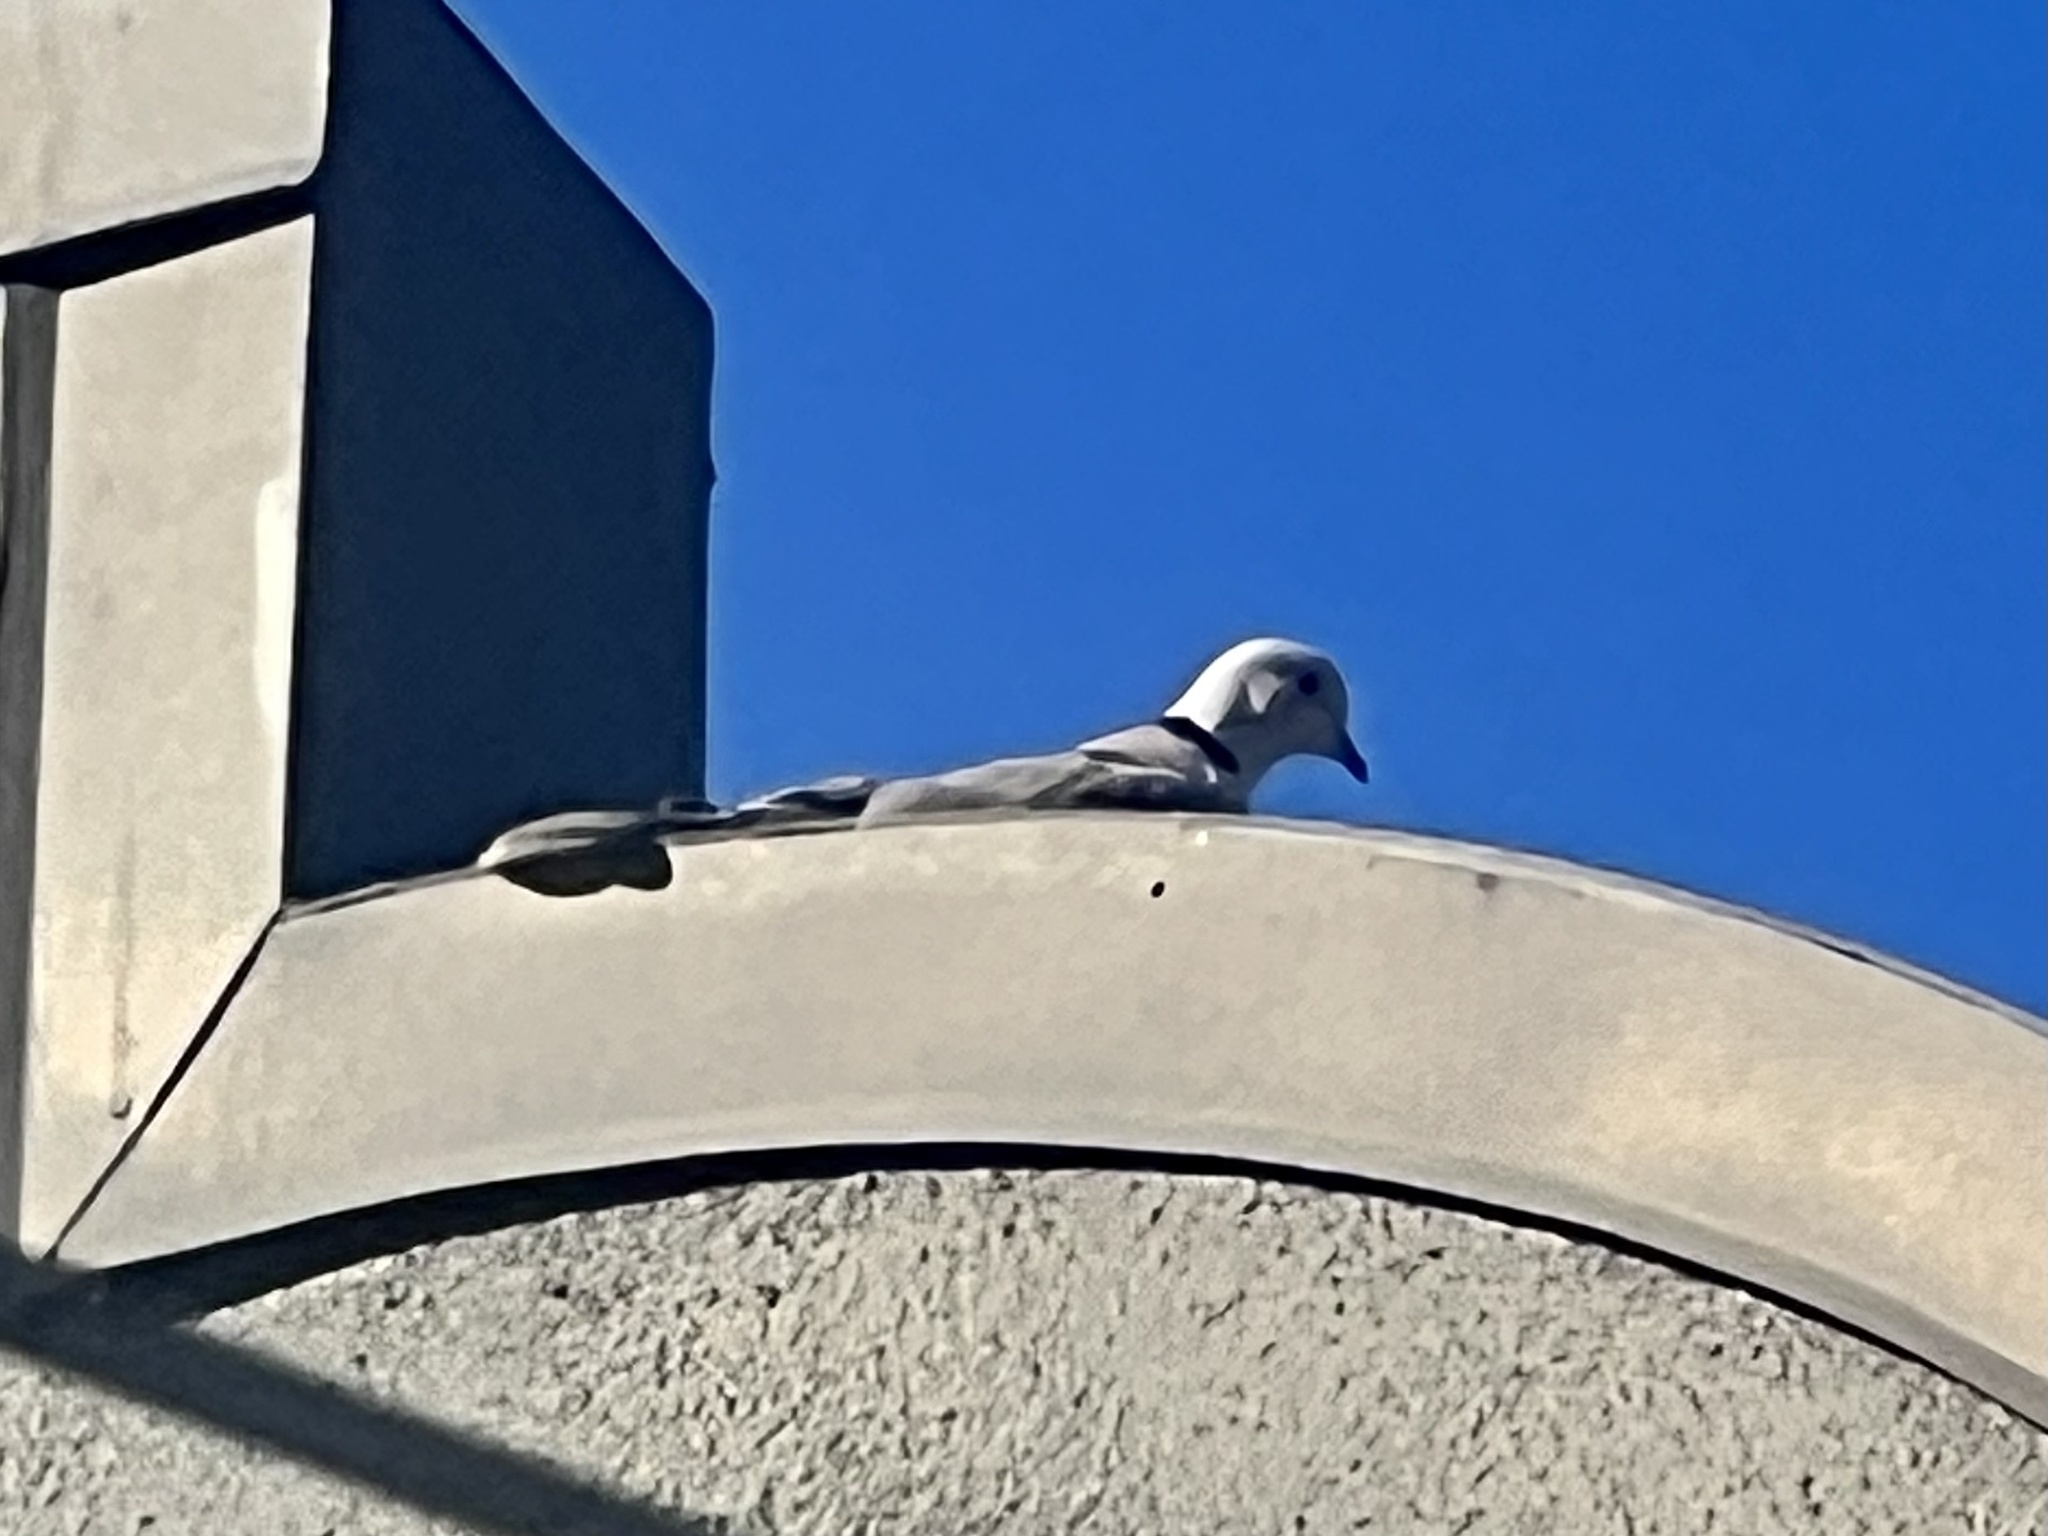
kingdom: Animalia
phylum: Chordata
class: Aves
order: Columbiformes
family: Columbidae
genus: Streptopelia
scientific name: Streptopelia decaocto
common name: Eurasian collared dove
